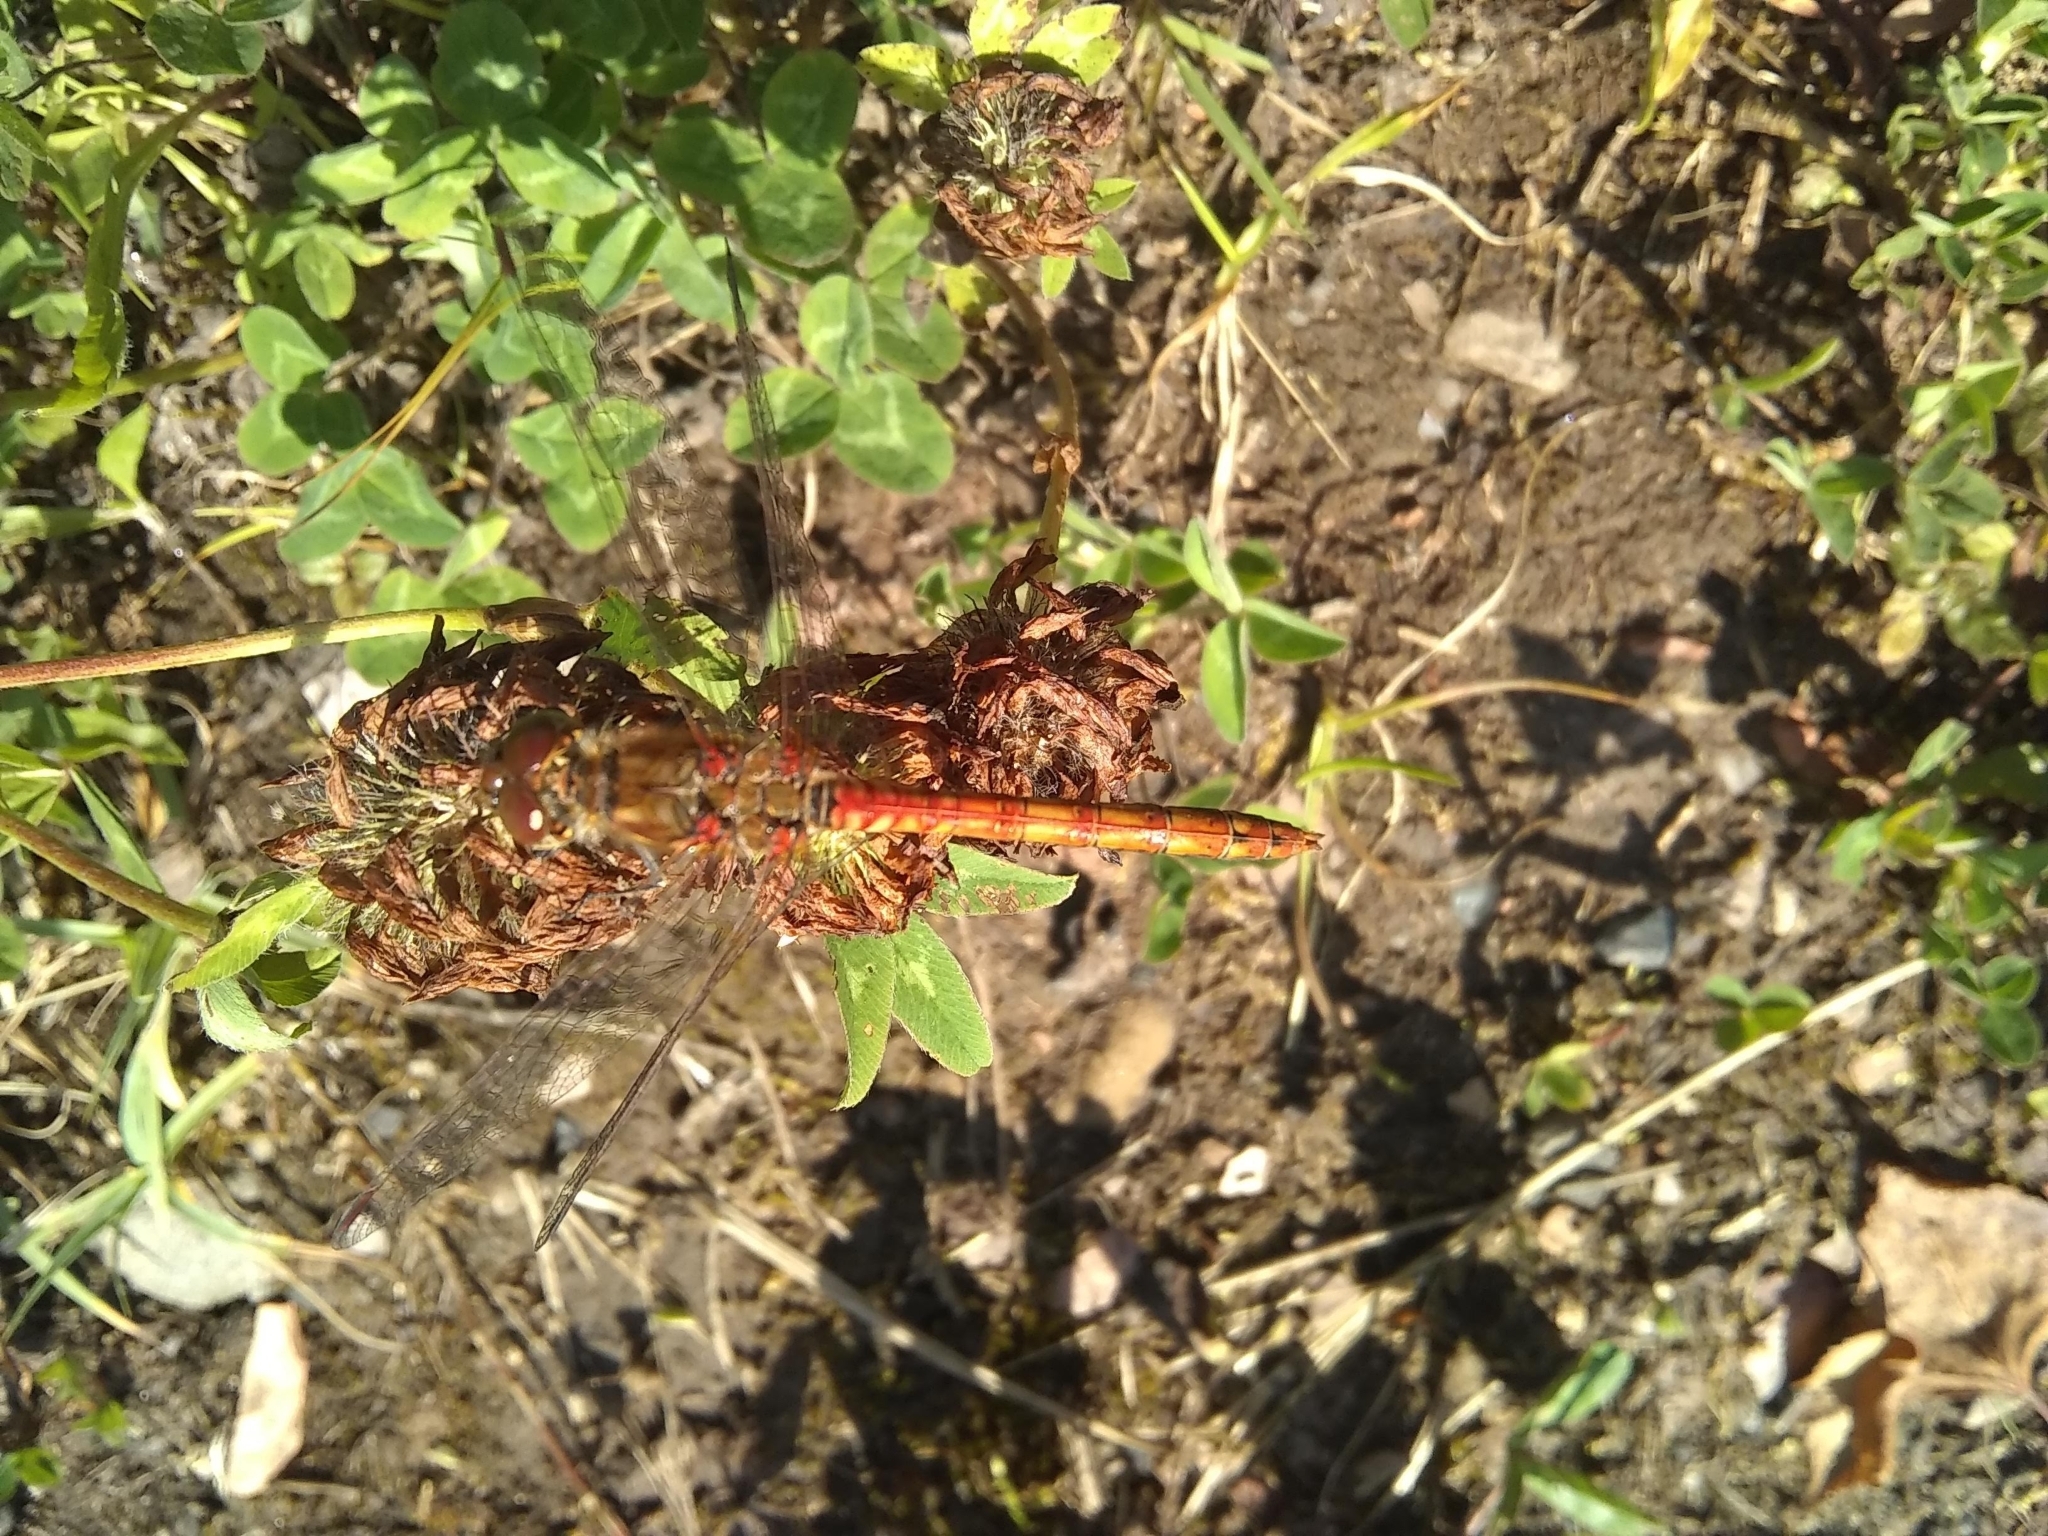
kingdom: Animalia
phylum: Arthropoda
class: Insecta
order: Odonata
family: Libellulidae
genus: Sympetrum
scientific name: Sympetrum striolatum
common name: Common darter
